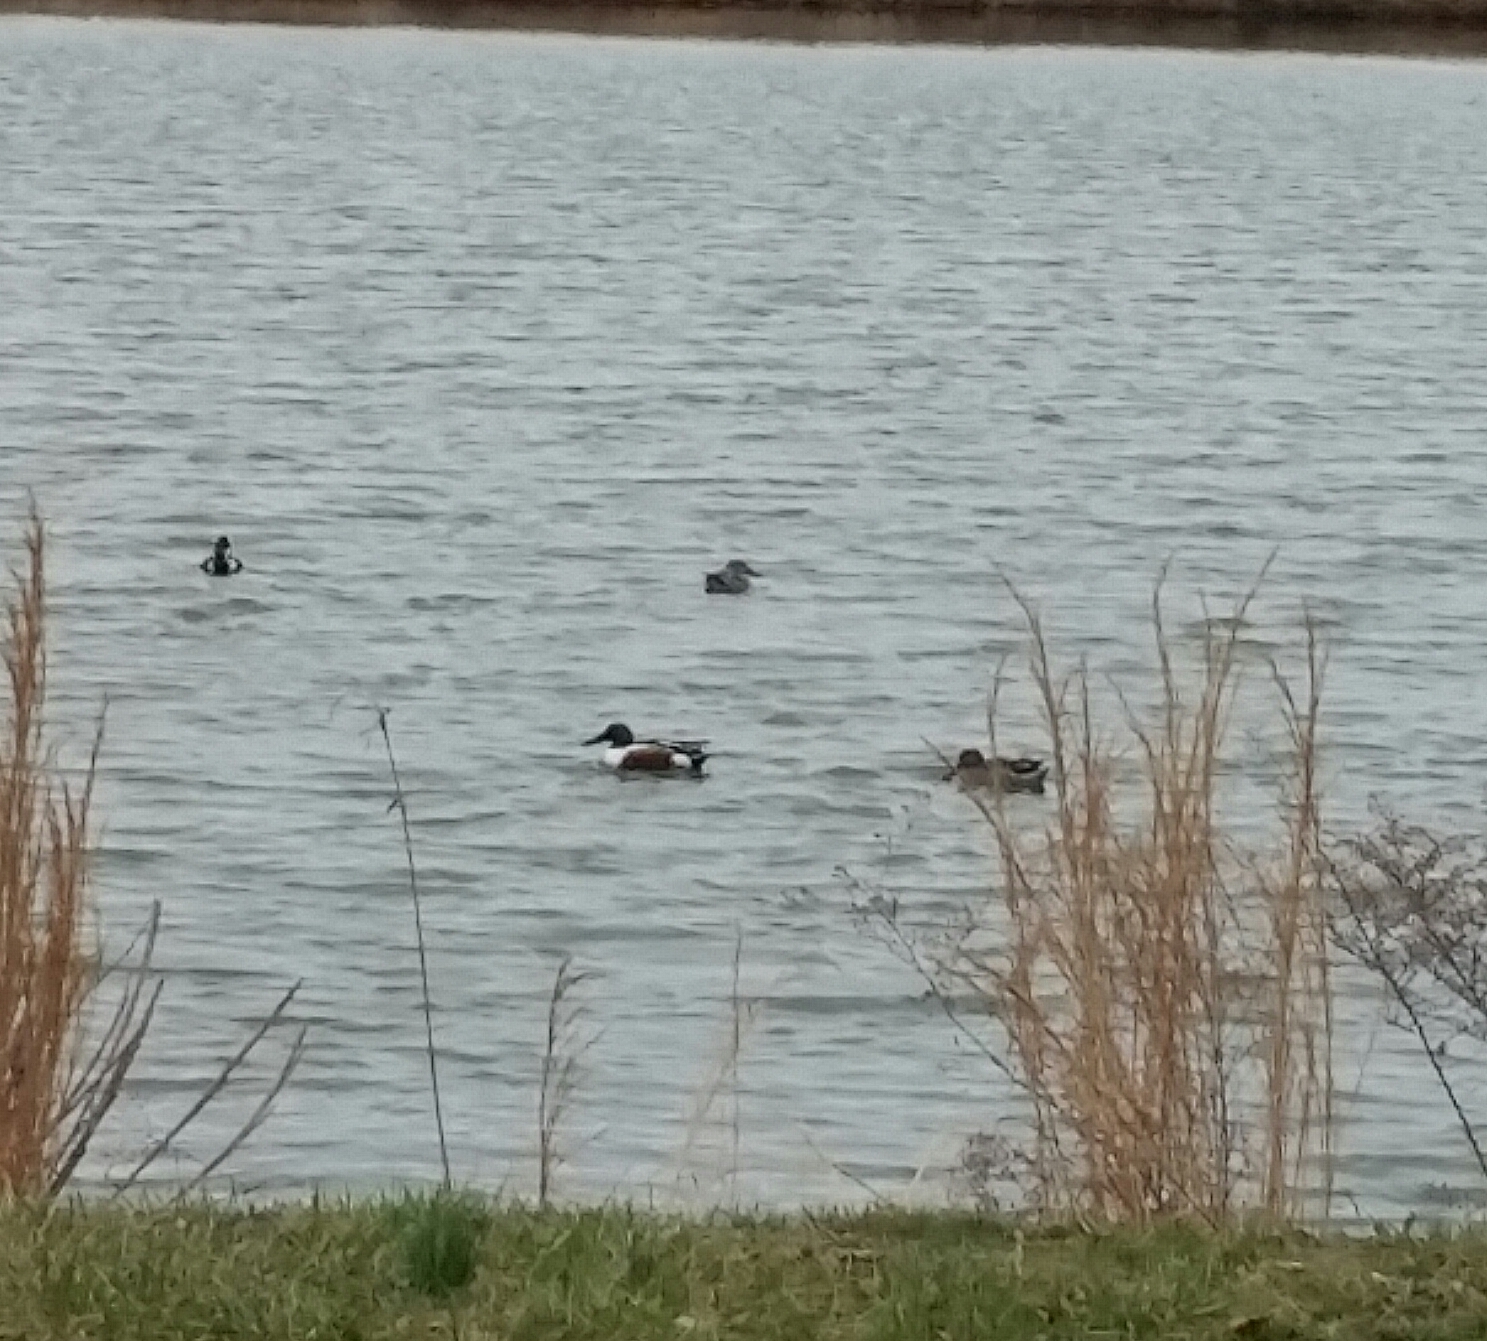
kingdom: Animalia
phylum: Chordata
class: Aves
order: Anseriformes
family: Anatidae
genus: Spatula
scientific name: Spatula clypeata
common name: Northern shoveler
